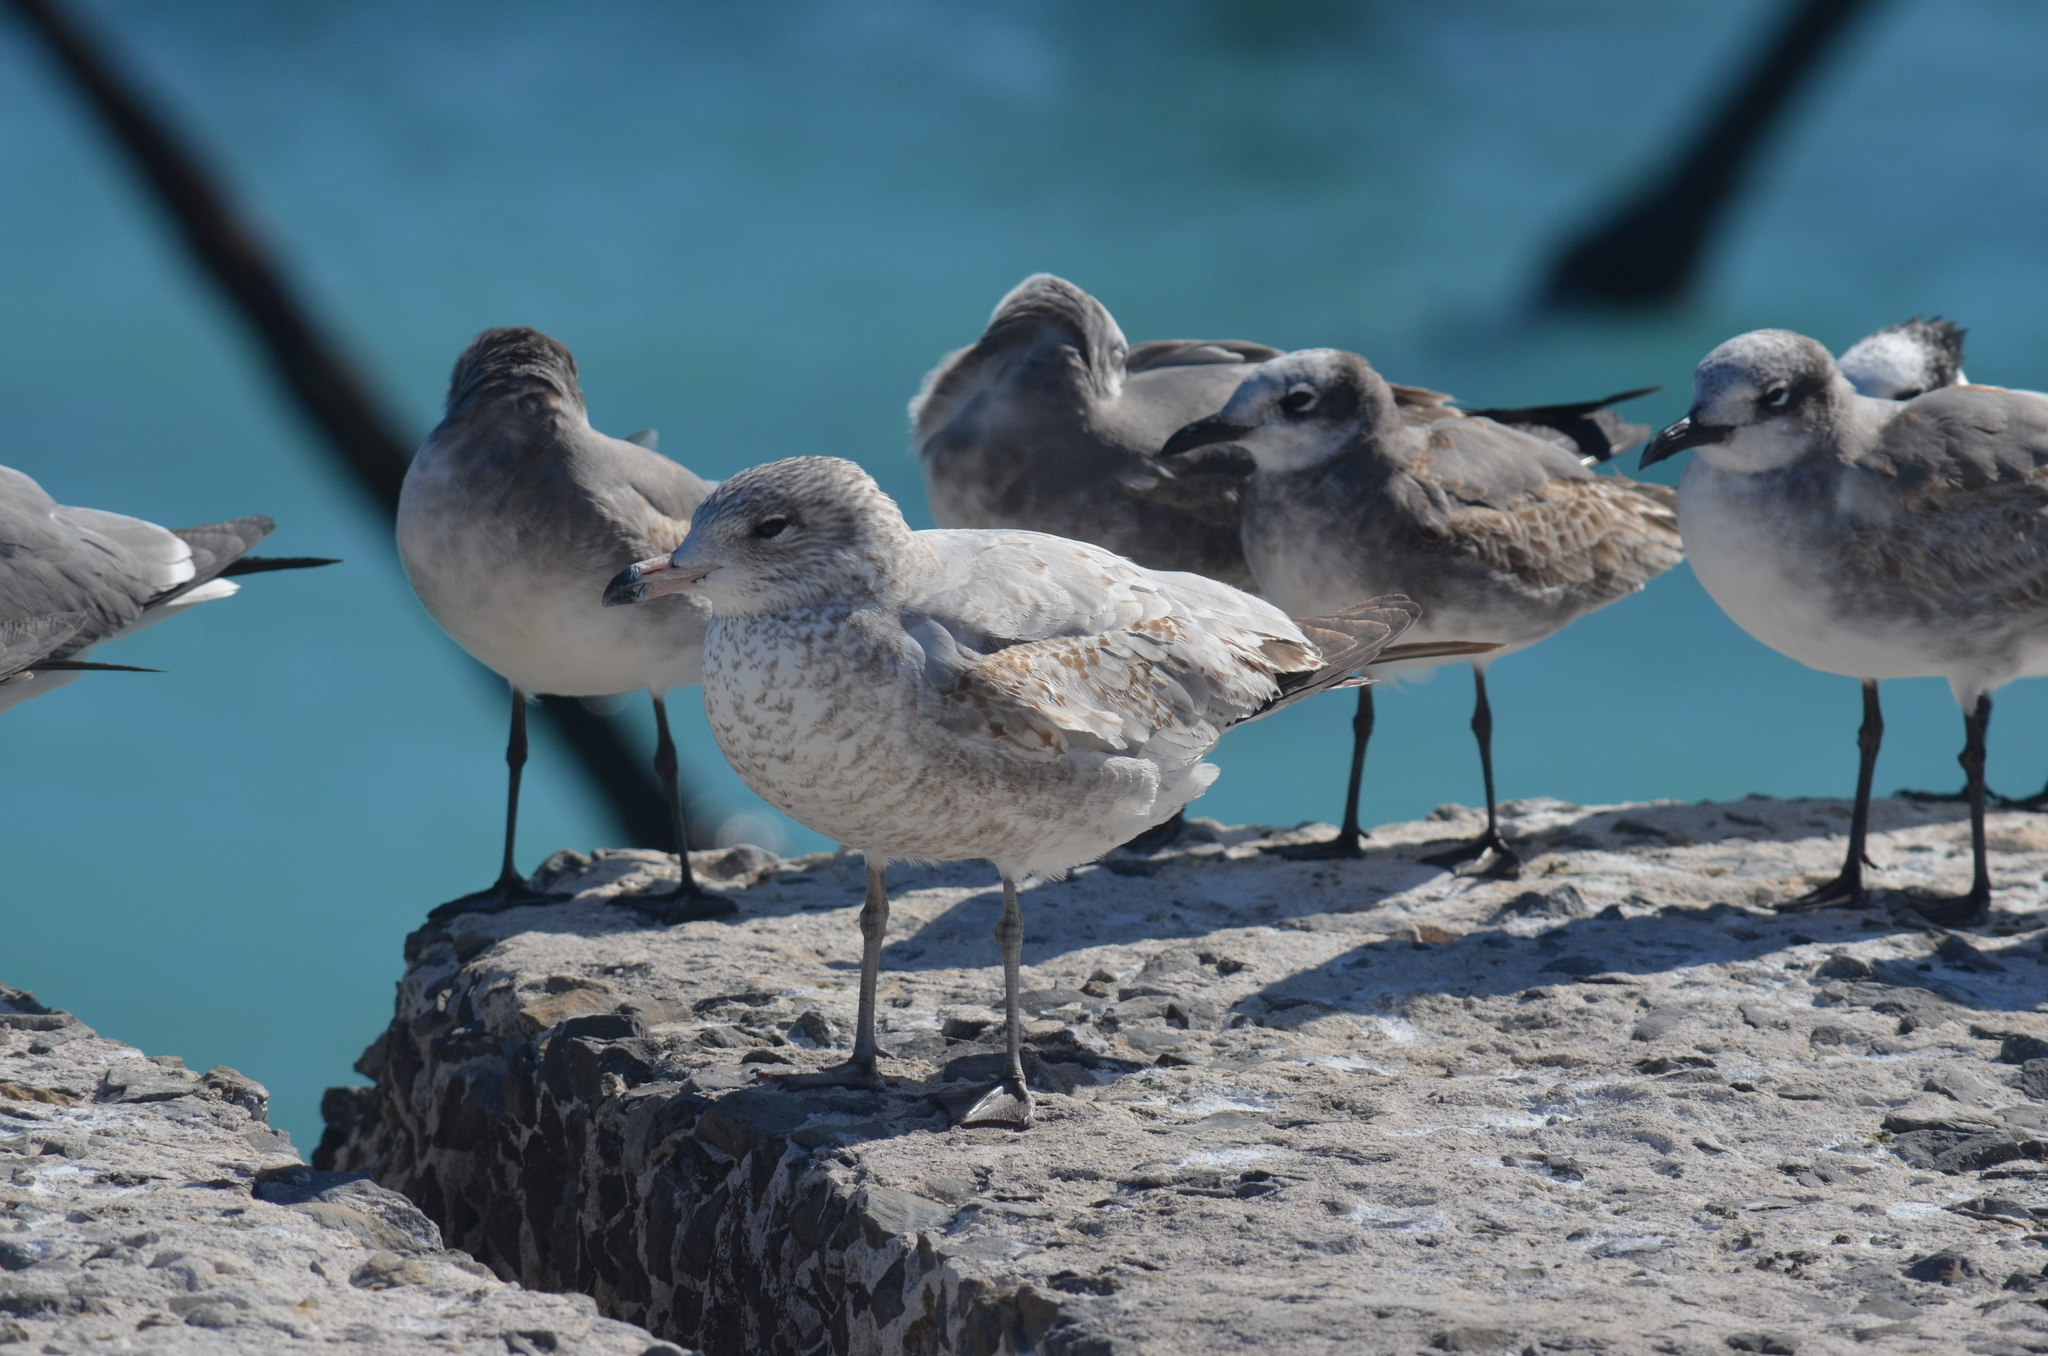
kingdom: Animalia
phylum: Chordata
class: Aves
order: Charadriiformes
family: Laridae
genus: Larus
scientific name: Larus delawarensis
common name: Ring-billed gull
